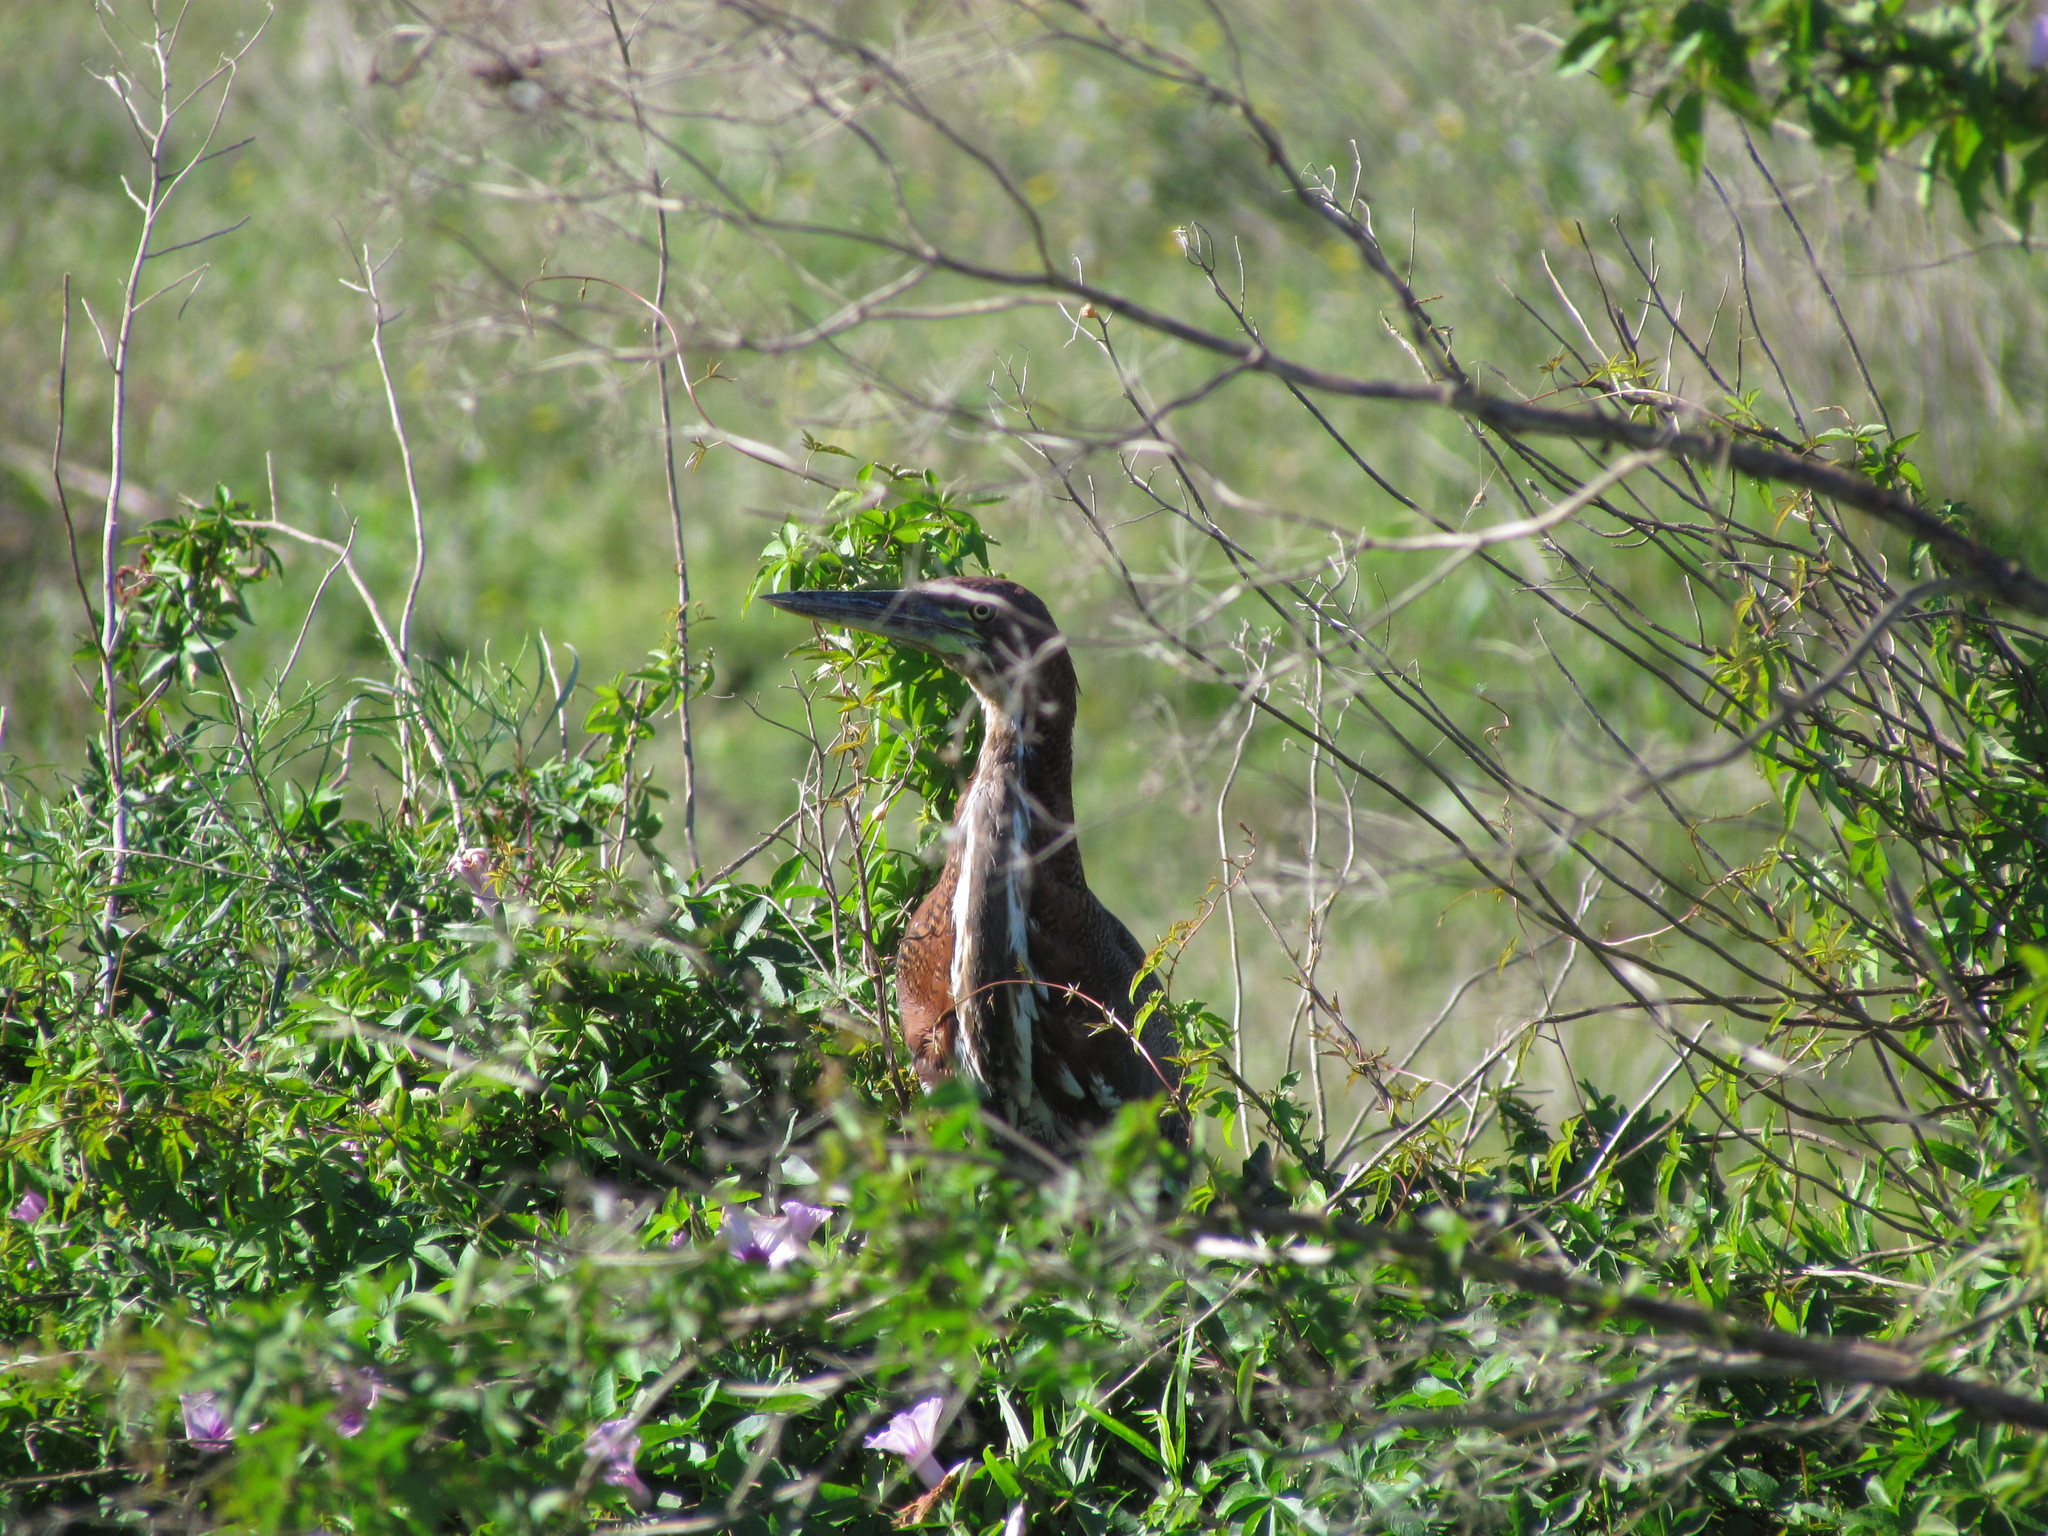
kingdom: Animalia
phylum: Chordata
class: Aves
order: Pelecaniformes
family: Ardeidae
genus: Tigrisoma
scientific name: Tigrisoma lineatum
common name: Rufescent tiger-heron
